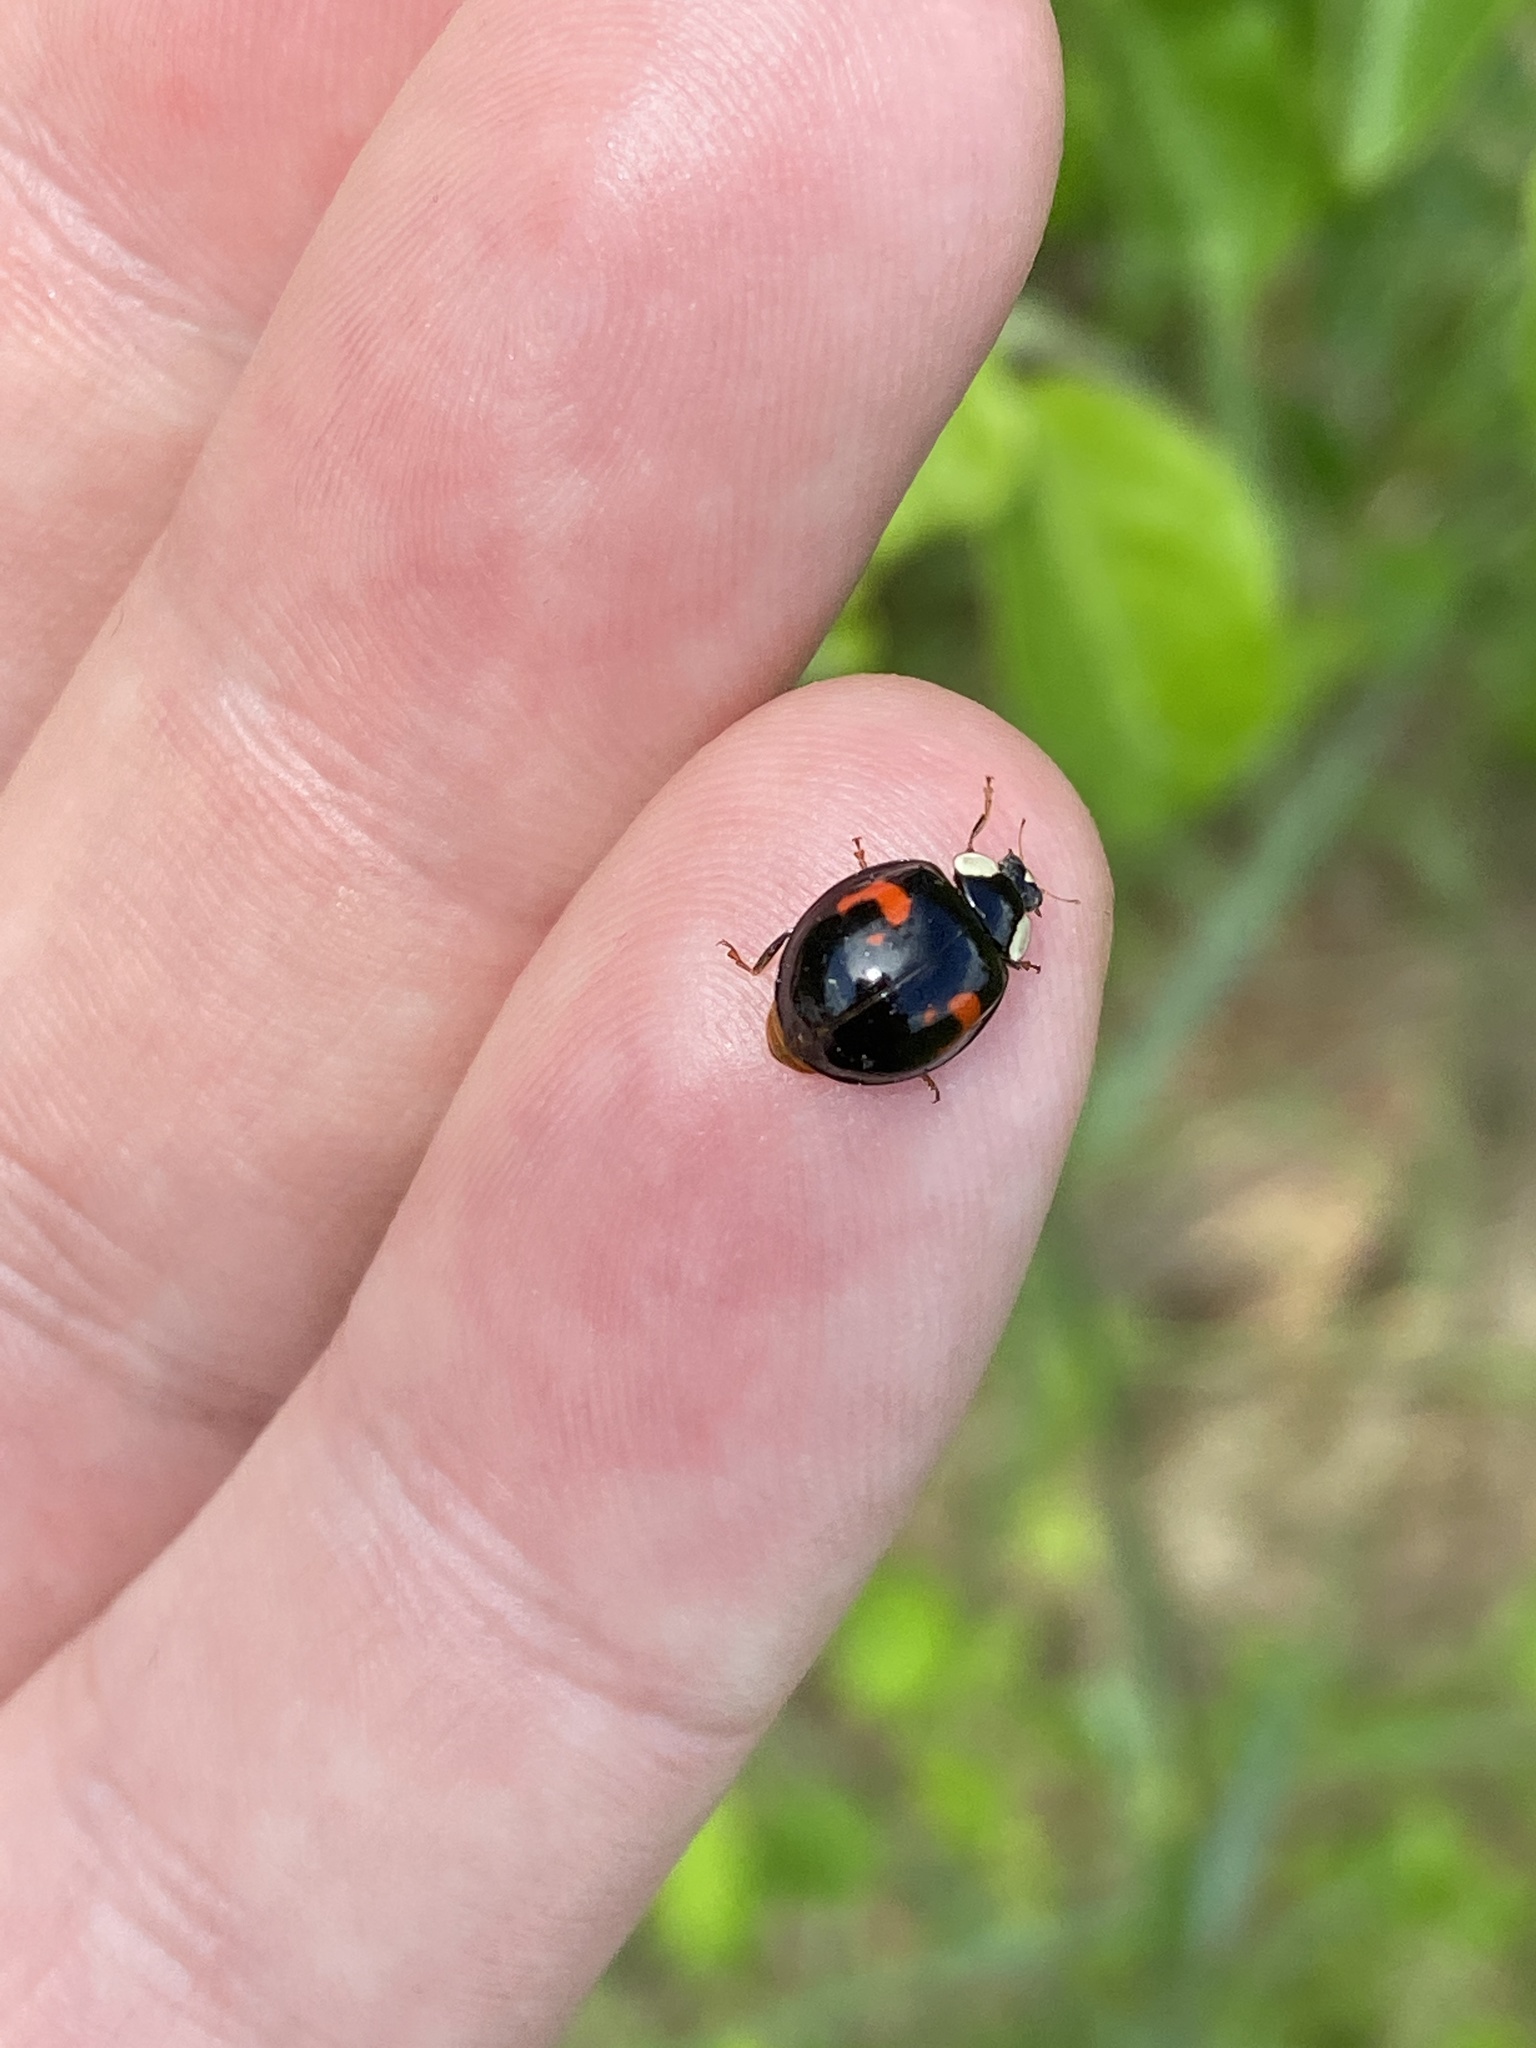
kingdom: Animalia
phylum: Arthropoda
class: Insecta
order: Coleoptera
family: Coccinellidae
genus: Harmonia
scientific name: Harmonia axyridis
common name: Harlequin ladybird
